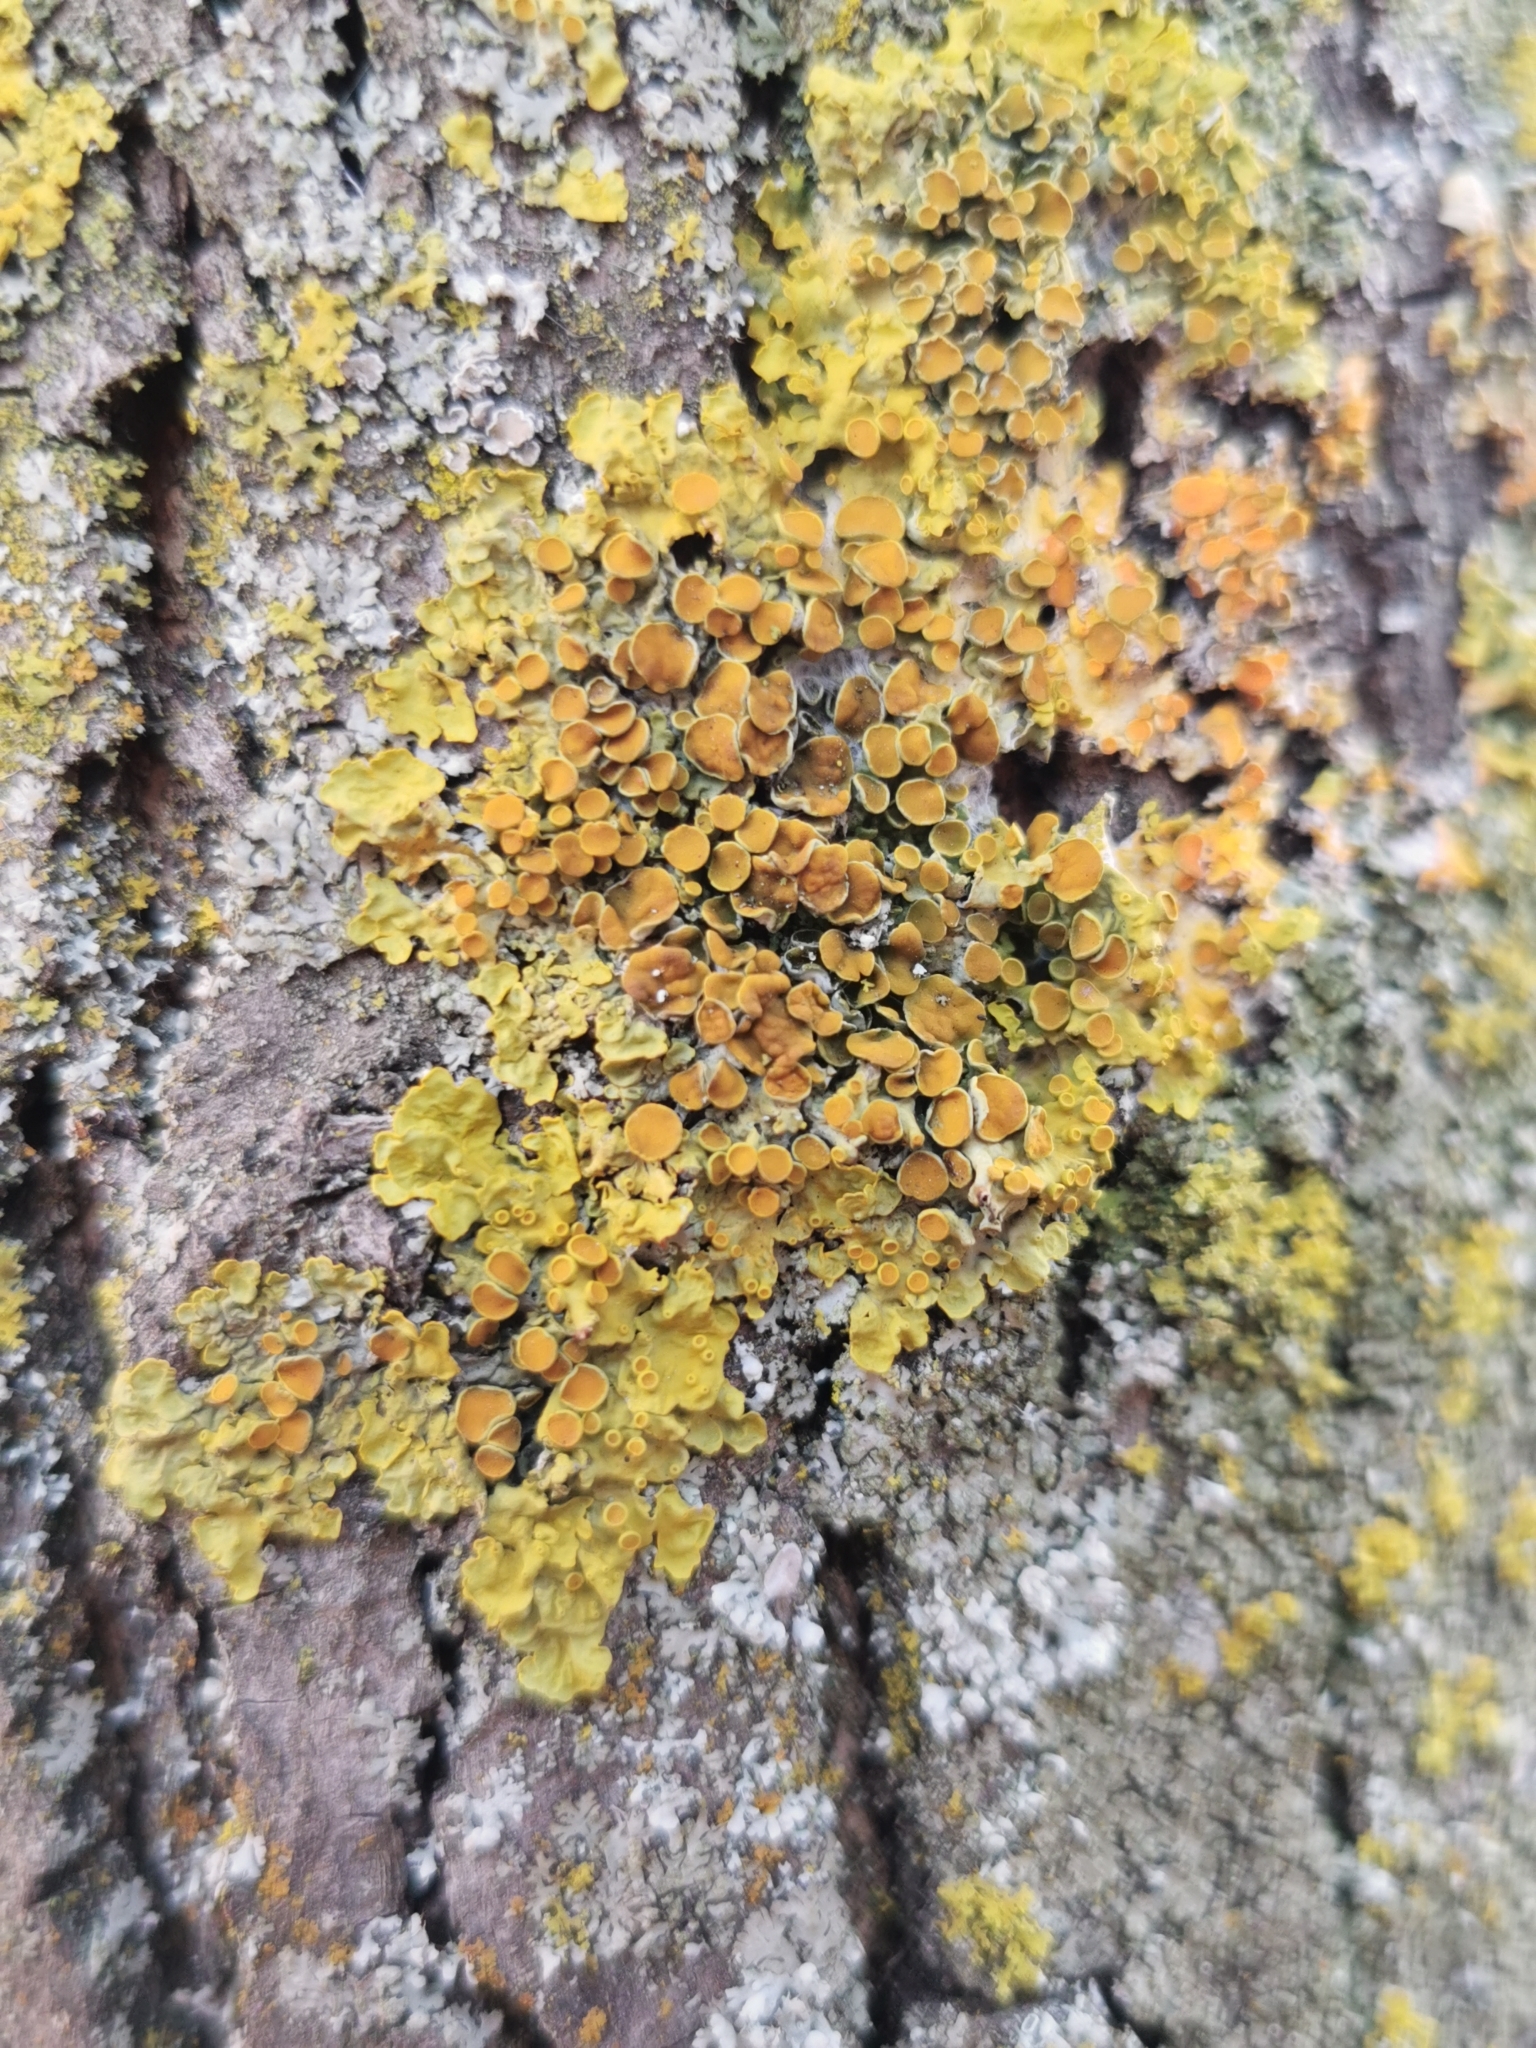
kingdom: Fungi
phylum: Ascomycota
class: Lecanoromycetes
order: Teloschistales
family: Teloschistaceae
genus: Xanthoria
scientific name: Xanthoria parietina
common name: Common orange lichen
